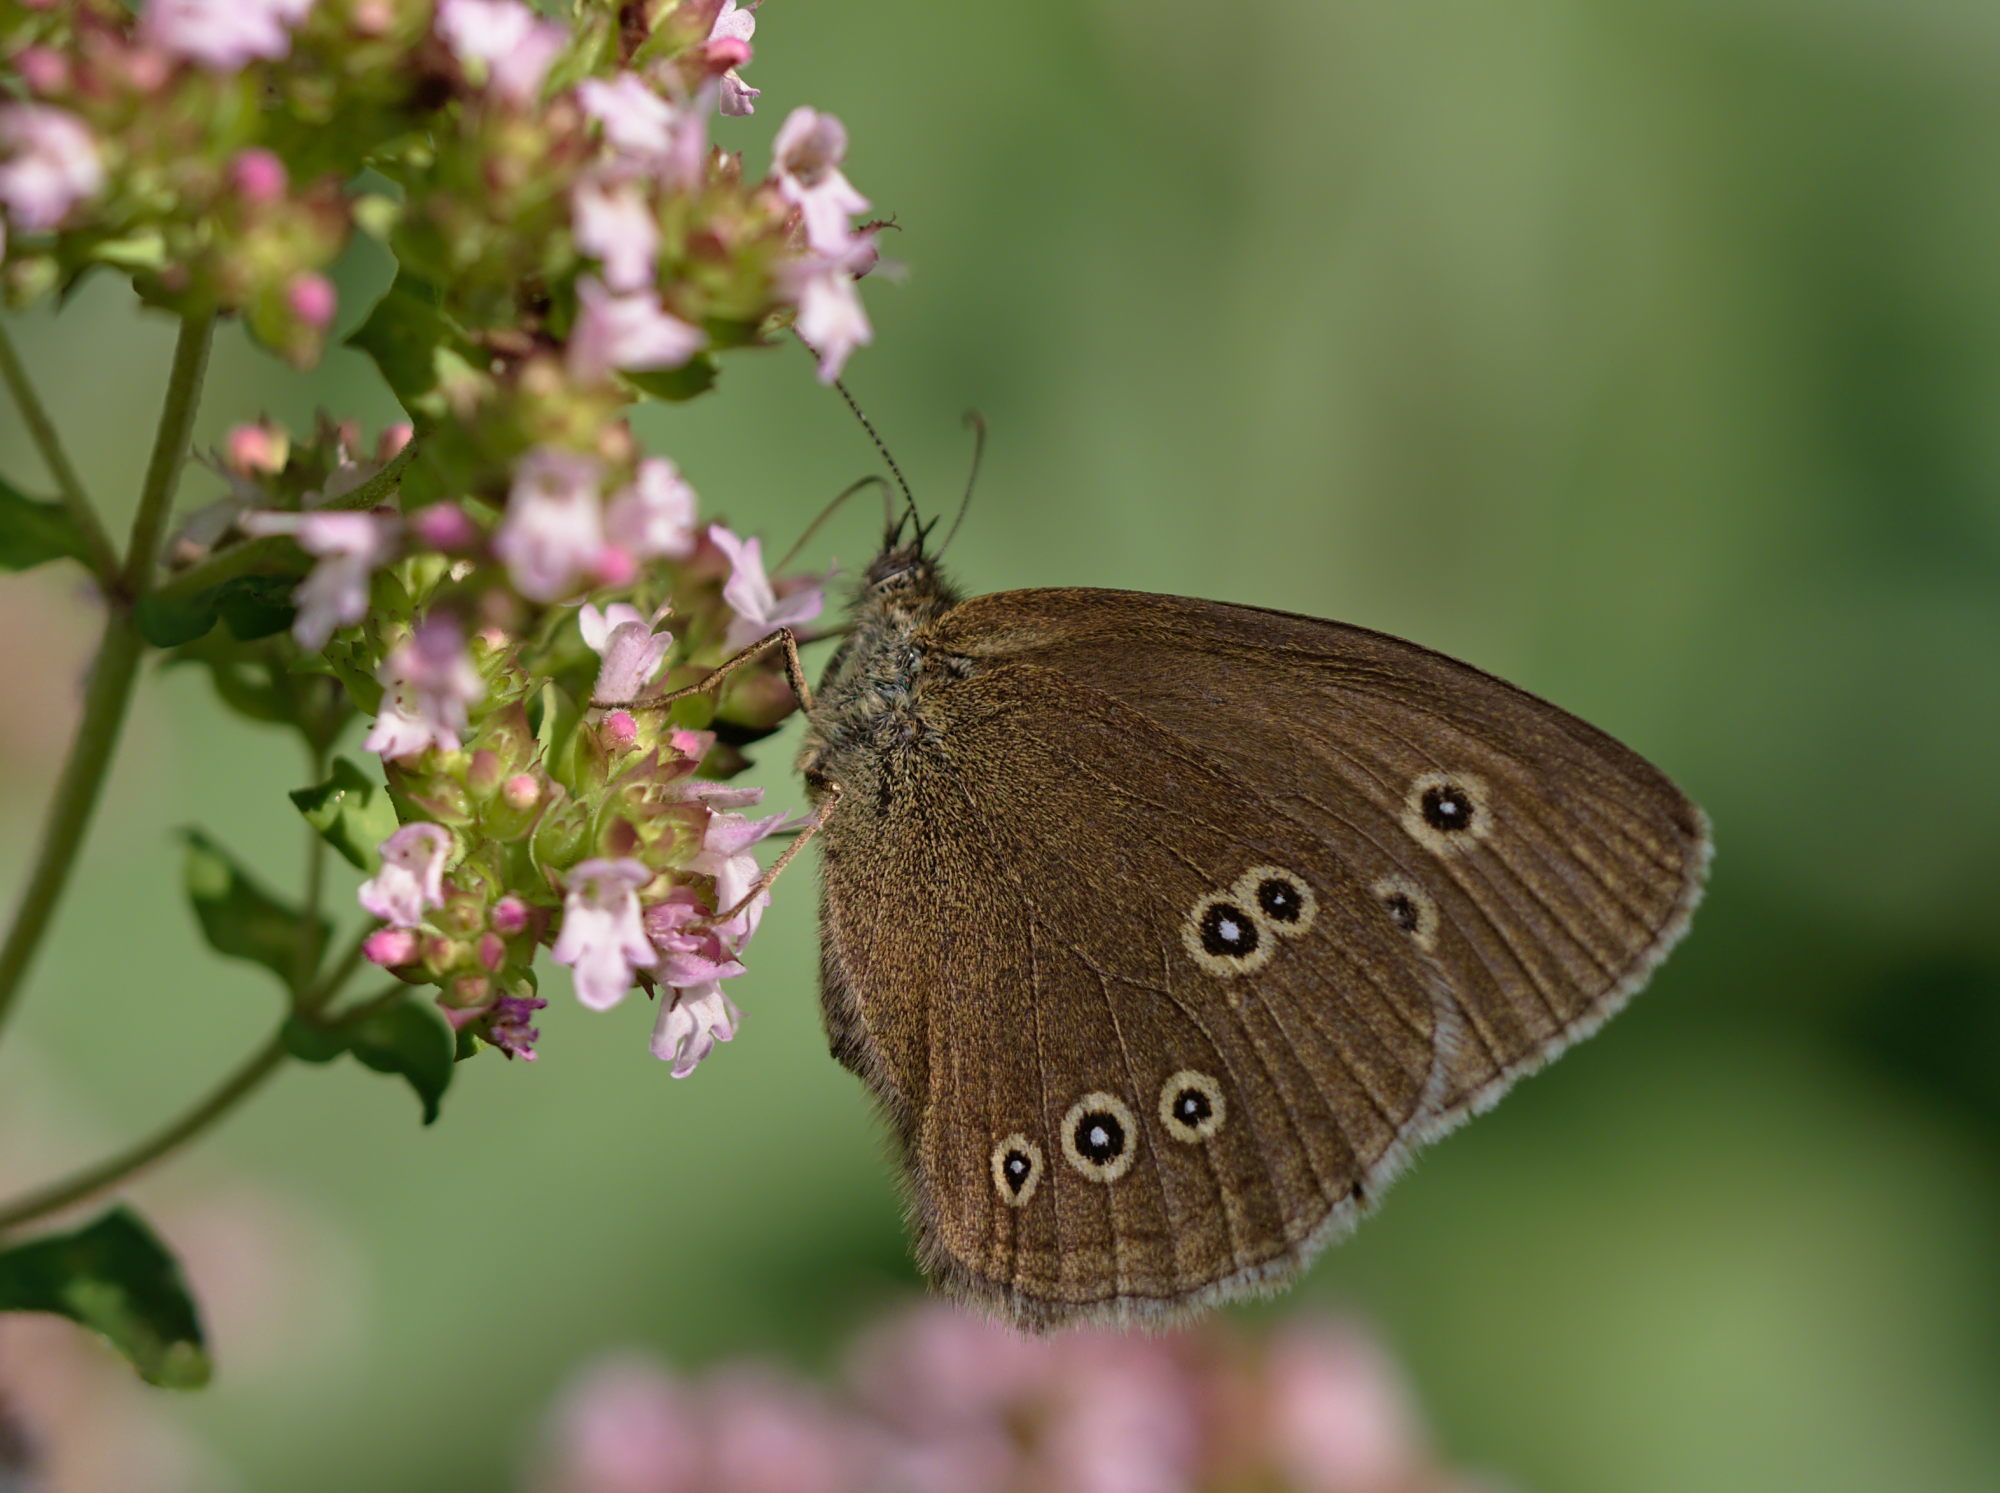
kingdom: Animalia
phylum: Arthropoda
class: Insecta
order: Lepidoptera
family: Nymphalidae
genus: Aphantopus
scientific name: Aphantopus hyperantus
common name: Ringlet
